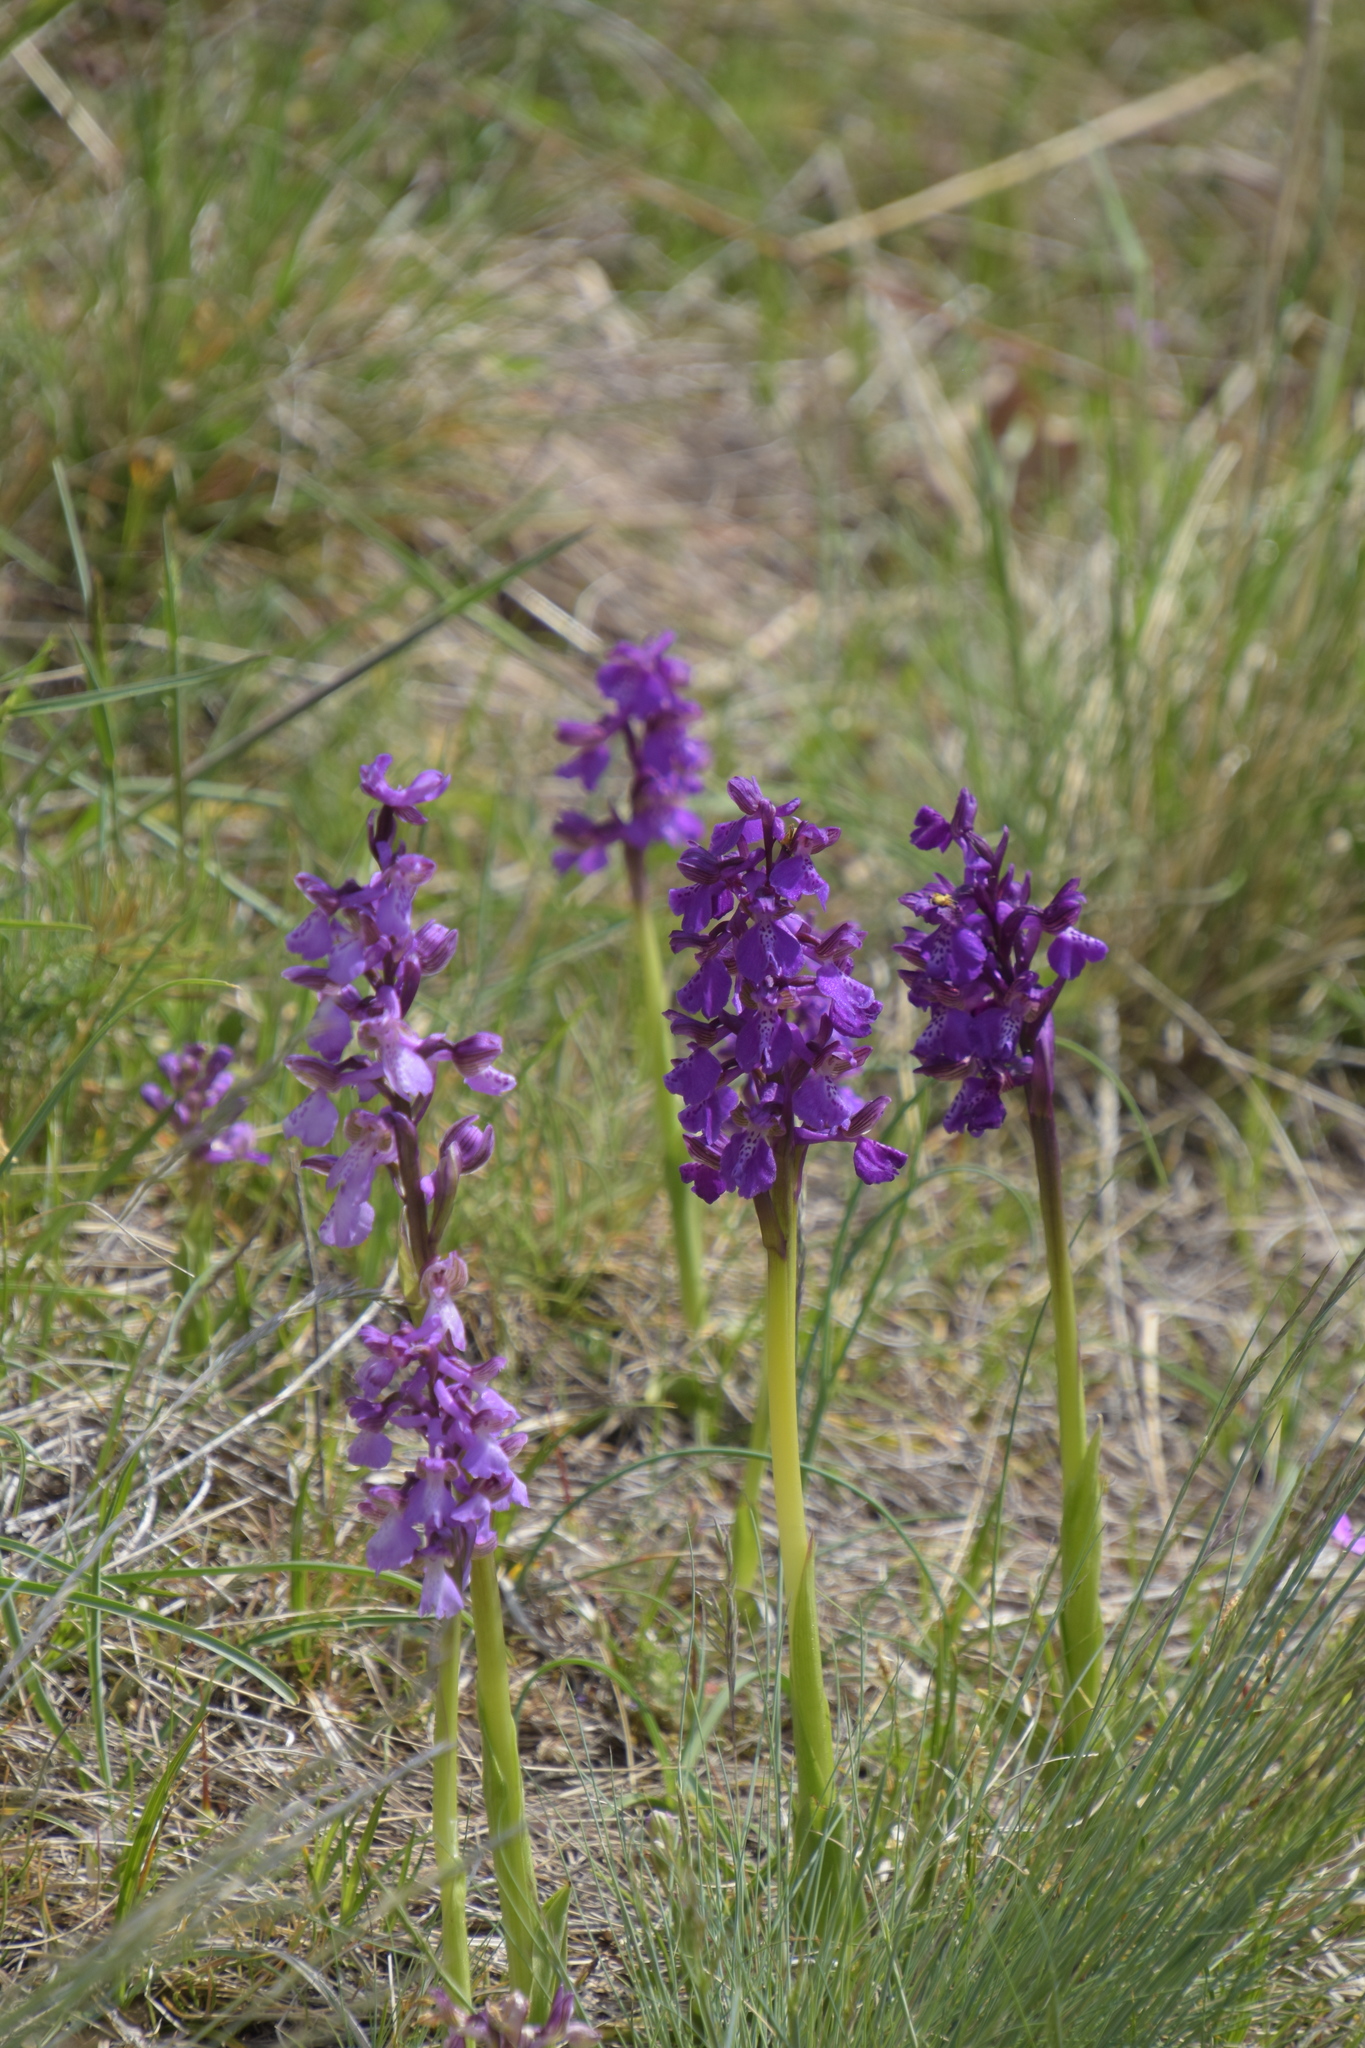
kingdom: Plantae
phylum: Tracheophyta
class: Liliopsida
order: Asparagales
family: Orchidaceae
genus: Anacamptis
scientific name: Anacamptis morio
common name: Green-winged orchid
